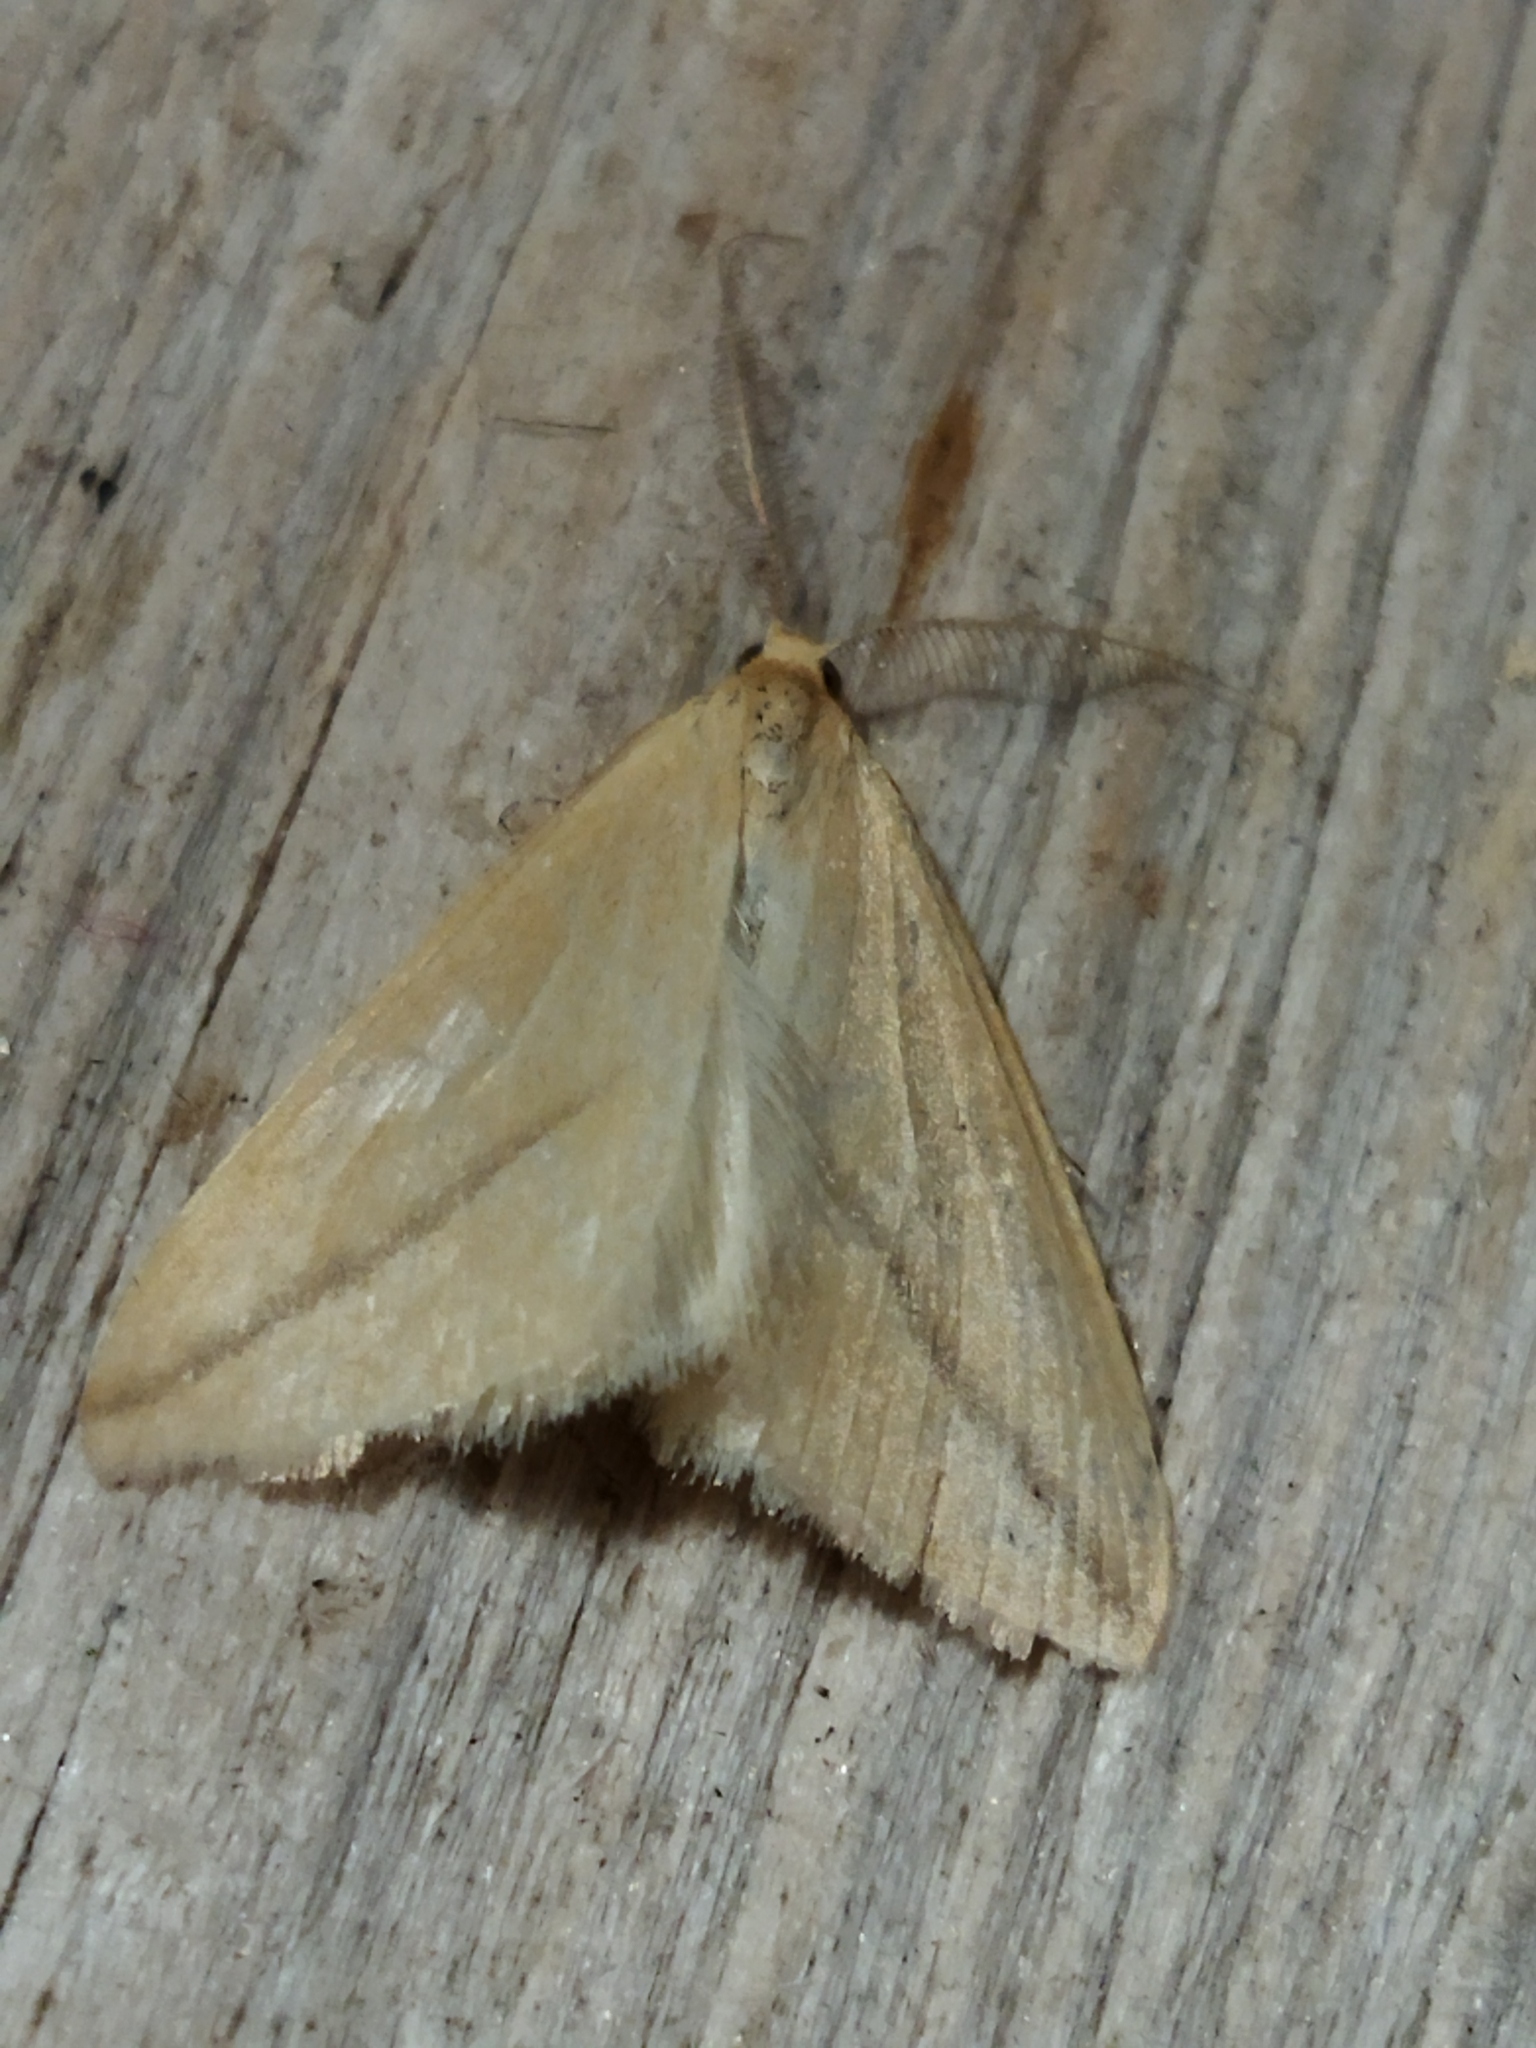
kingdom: Animalia
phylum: Arthropoda
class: Insecta
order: Lepidoptera
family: Geometridae
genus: Rhodometra
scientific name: Rhodometra sacraria
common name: Vestal
